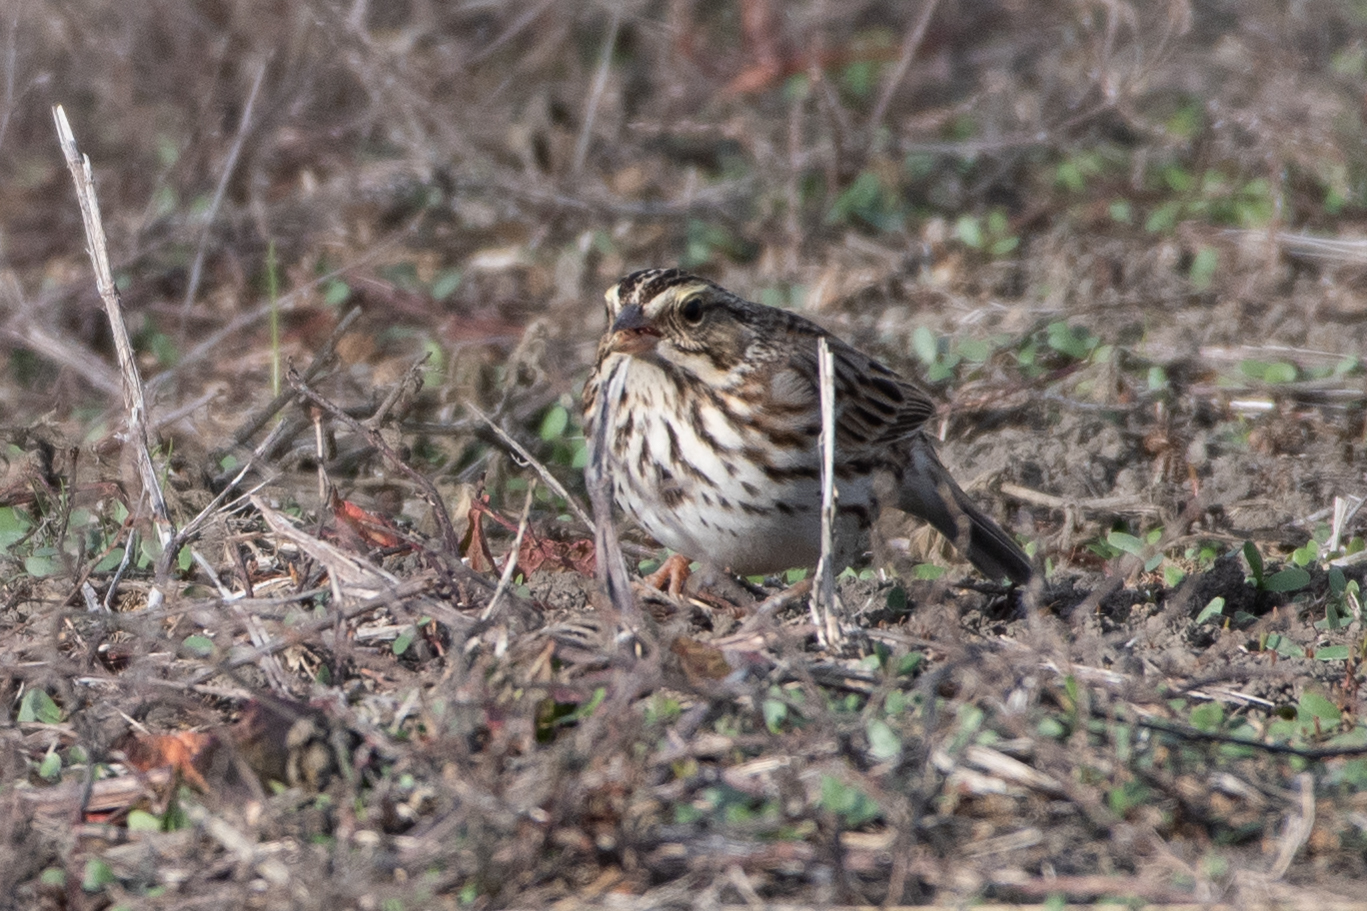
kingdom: Animalia
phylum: Chordata
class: Aves
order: Passeriformes
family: Passerellidae
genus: Passerculus
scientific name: Passerculus sandwichensis
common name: Savannah sparrow
